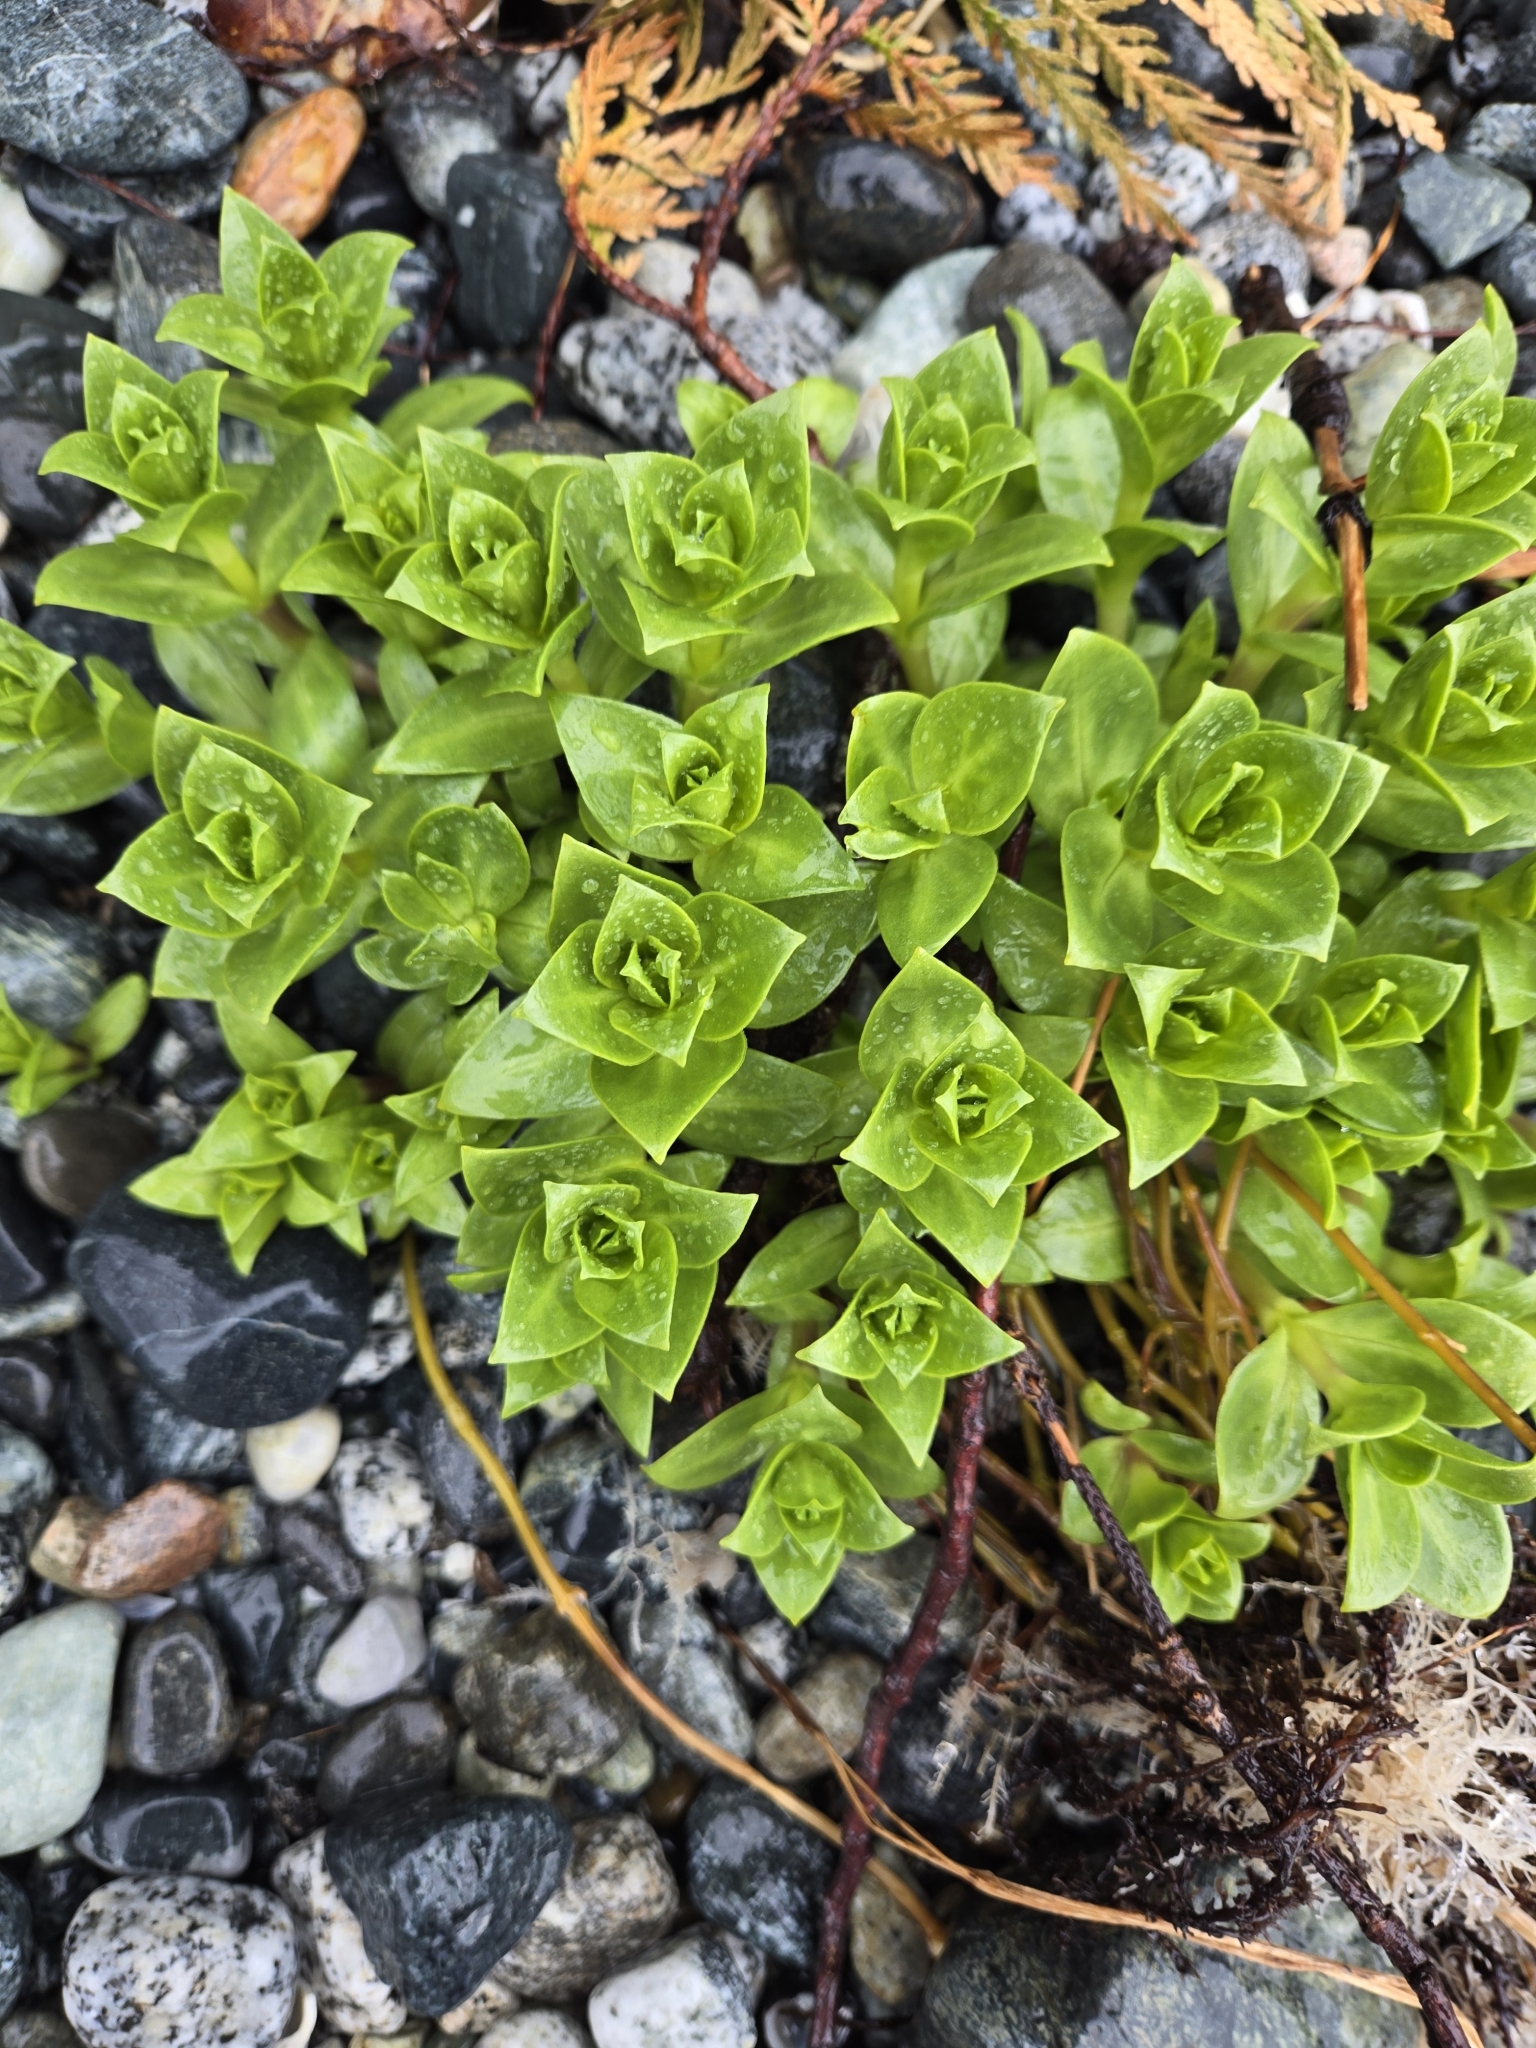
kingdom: Plantae
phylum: Tracheophyta
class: Magnoliopsida
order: Caryophyllales
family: Caryophyllaceae
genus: Honckenya
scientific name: Honckenya peploides
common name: Sea sandwort
